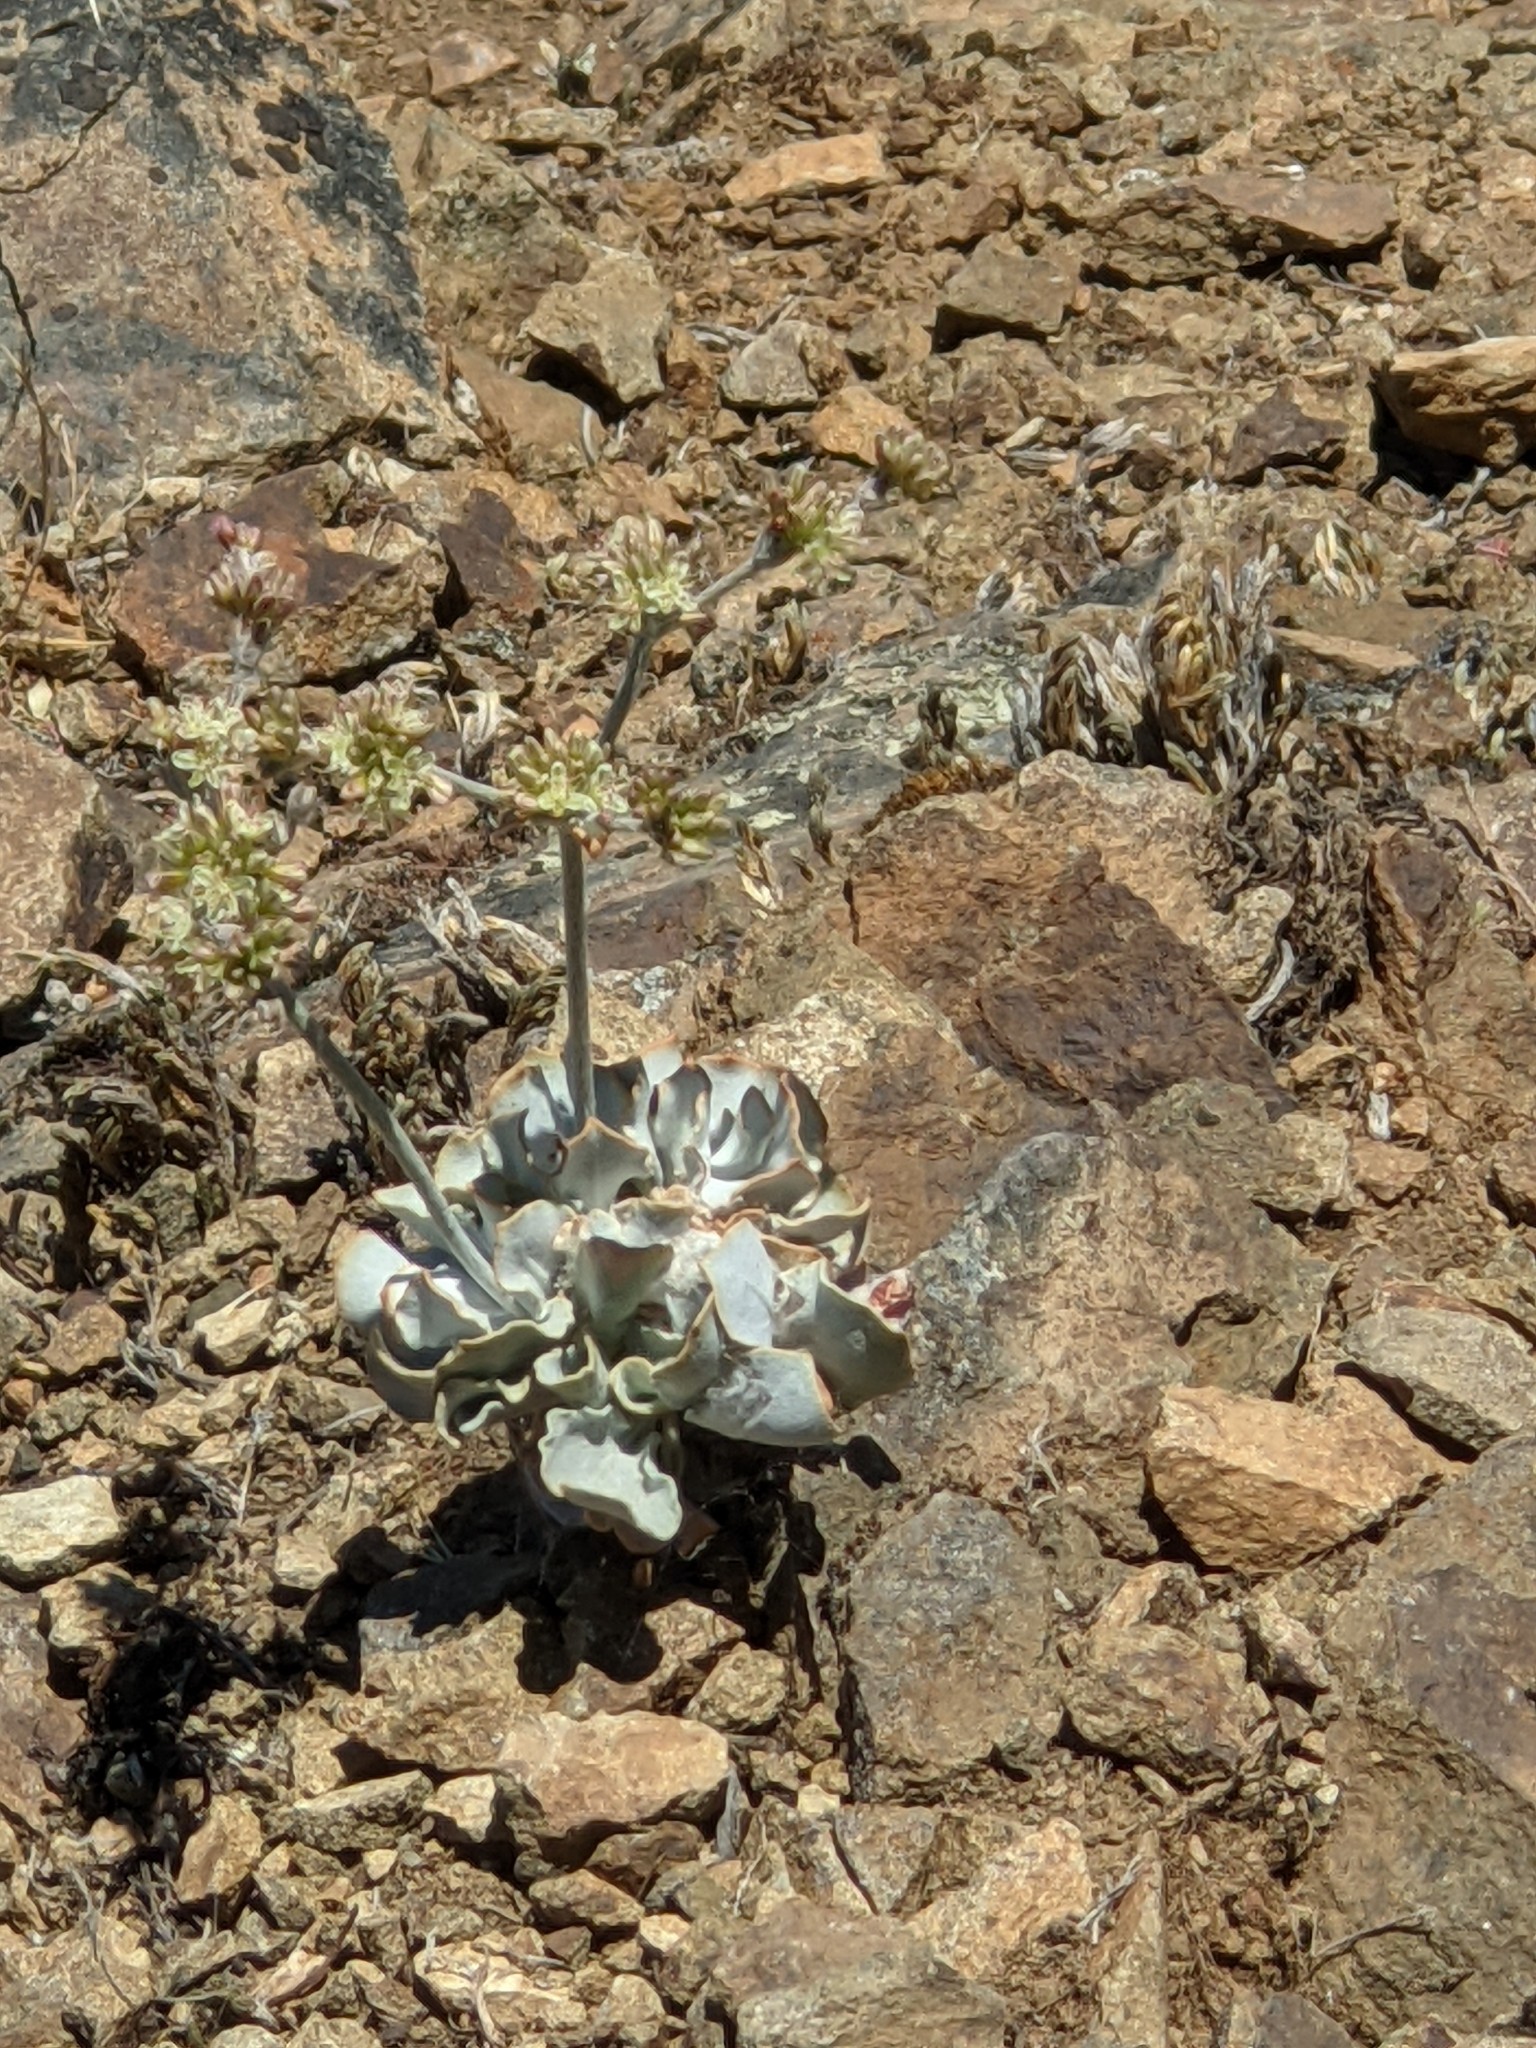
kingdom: Plantae
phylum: Tracheophyta
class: Magnoliopsida
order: Caryophyllales
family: Polygonaceae
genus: Eriogonum
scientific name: Eriogonum saxatile
